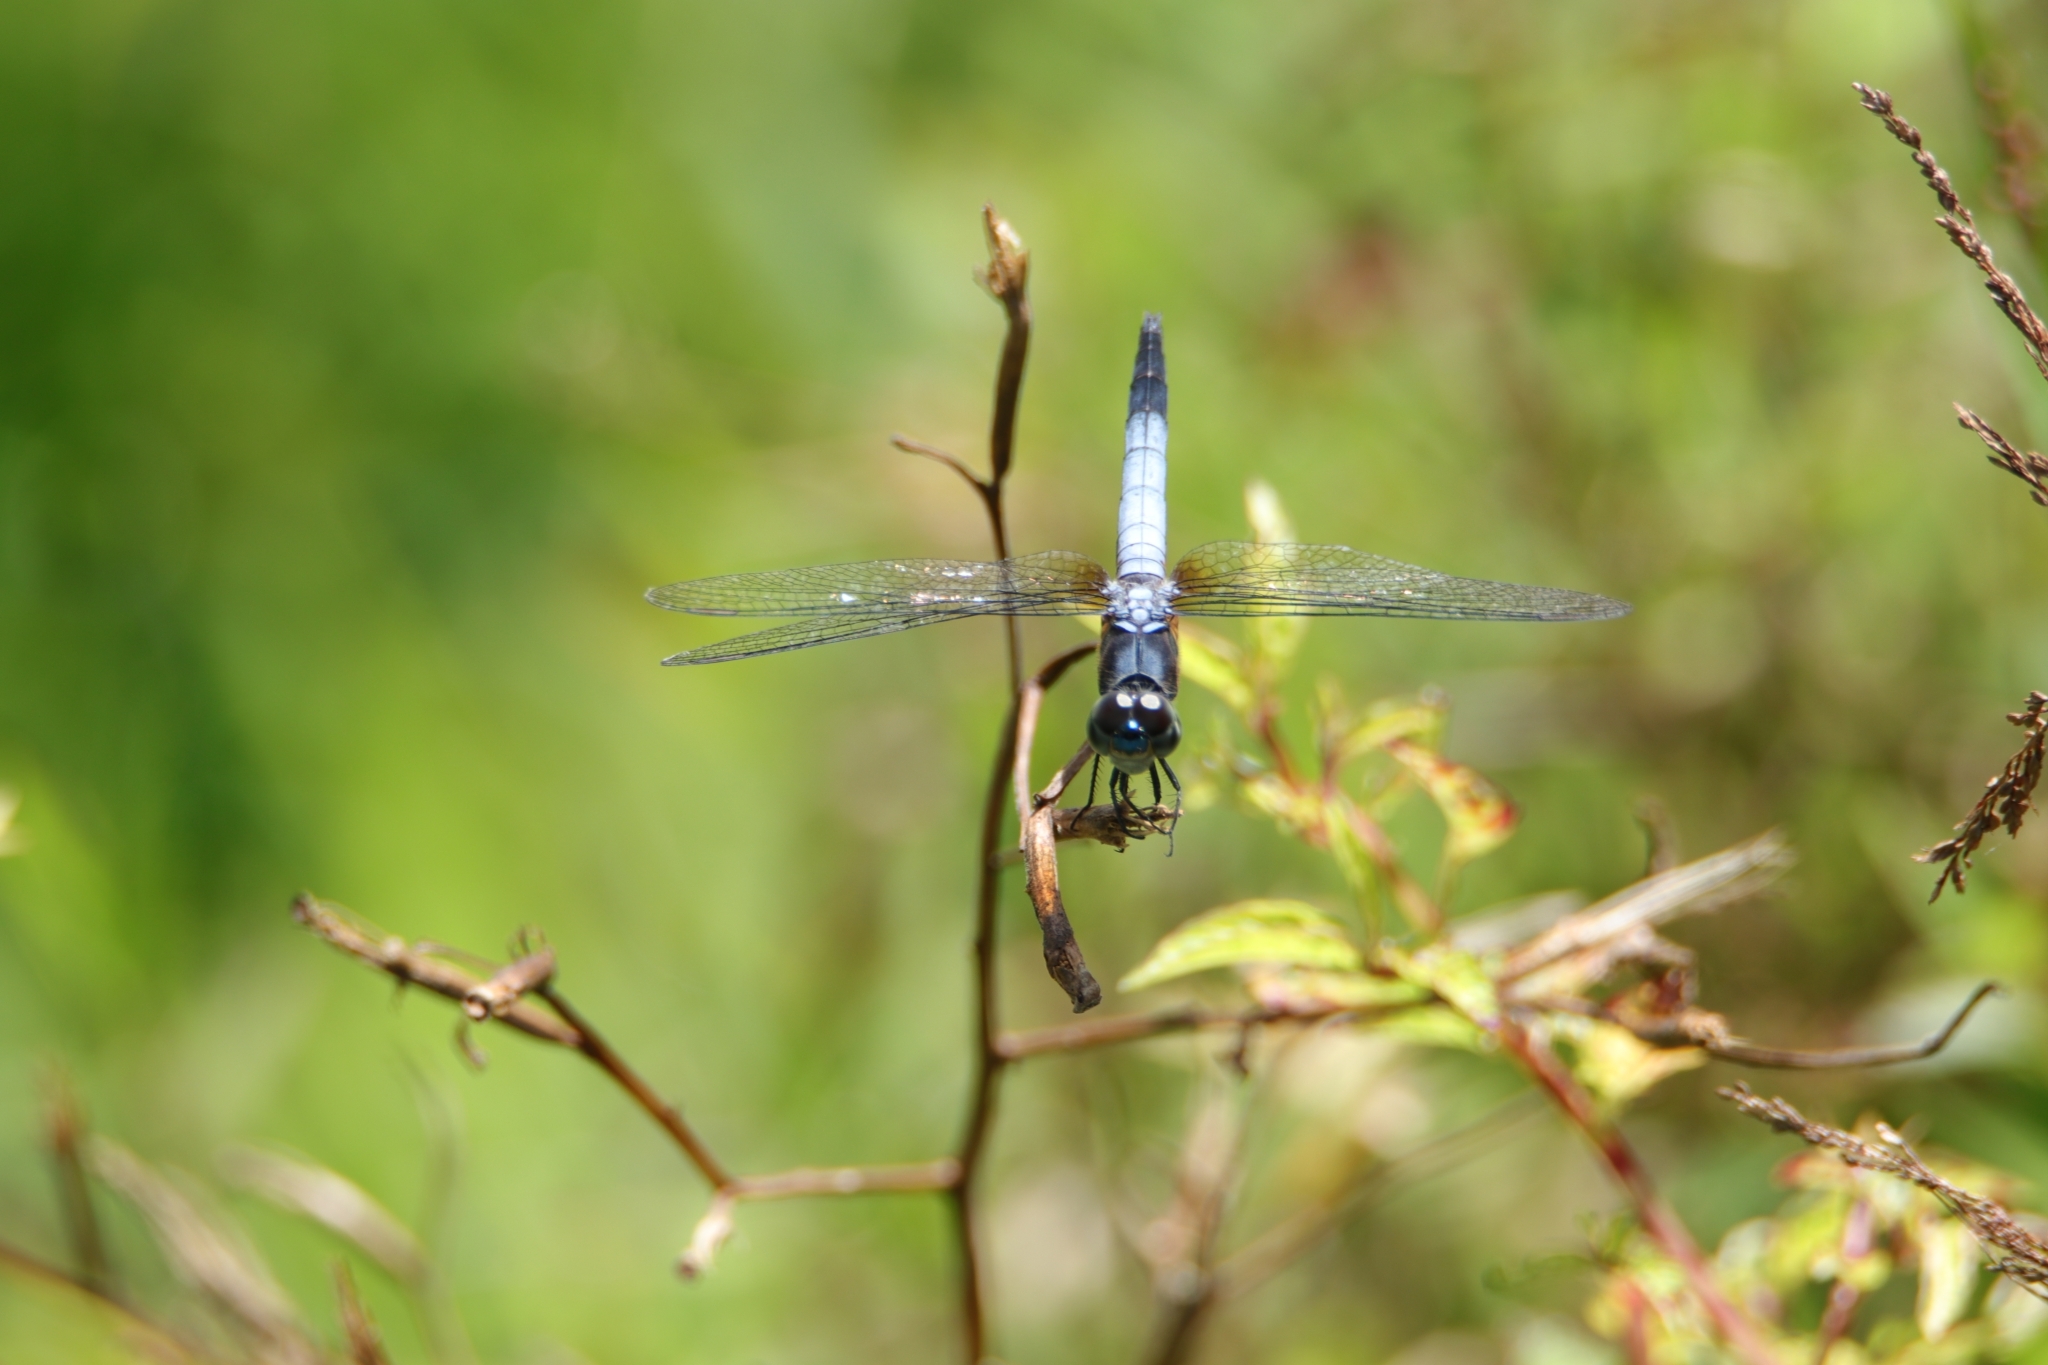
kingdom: Animalia
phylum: Arthropoda
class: Insecta
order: Odonata
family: Libellulidae
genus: Brachydiplax
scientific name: Brachydiplax chalybea
